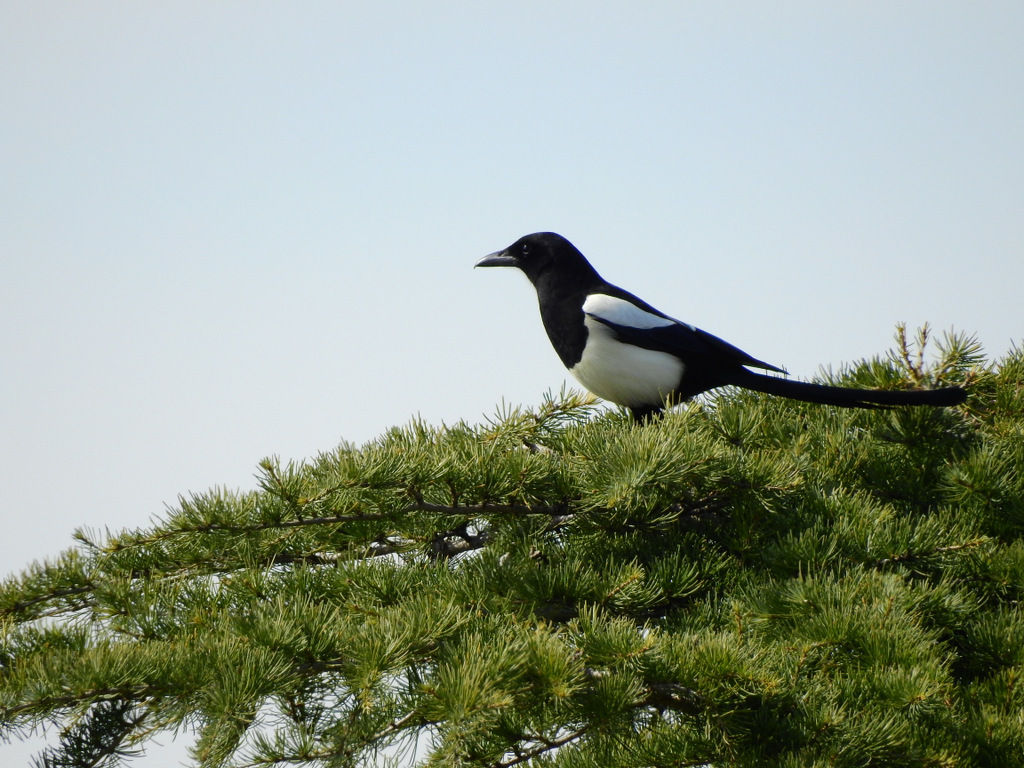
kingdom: Animalia
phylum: Chordata
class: Aves
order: Passeriformes
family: Corvidae
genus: Pica
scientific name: Pica pica
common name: Eurasian magpie
